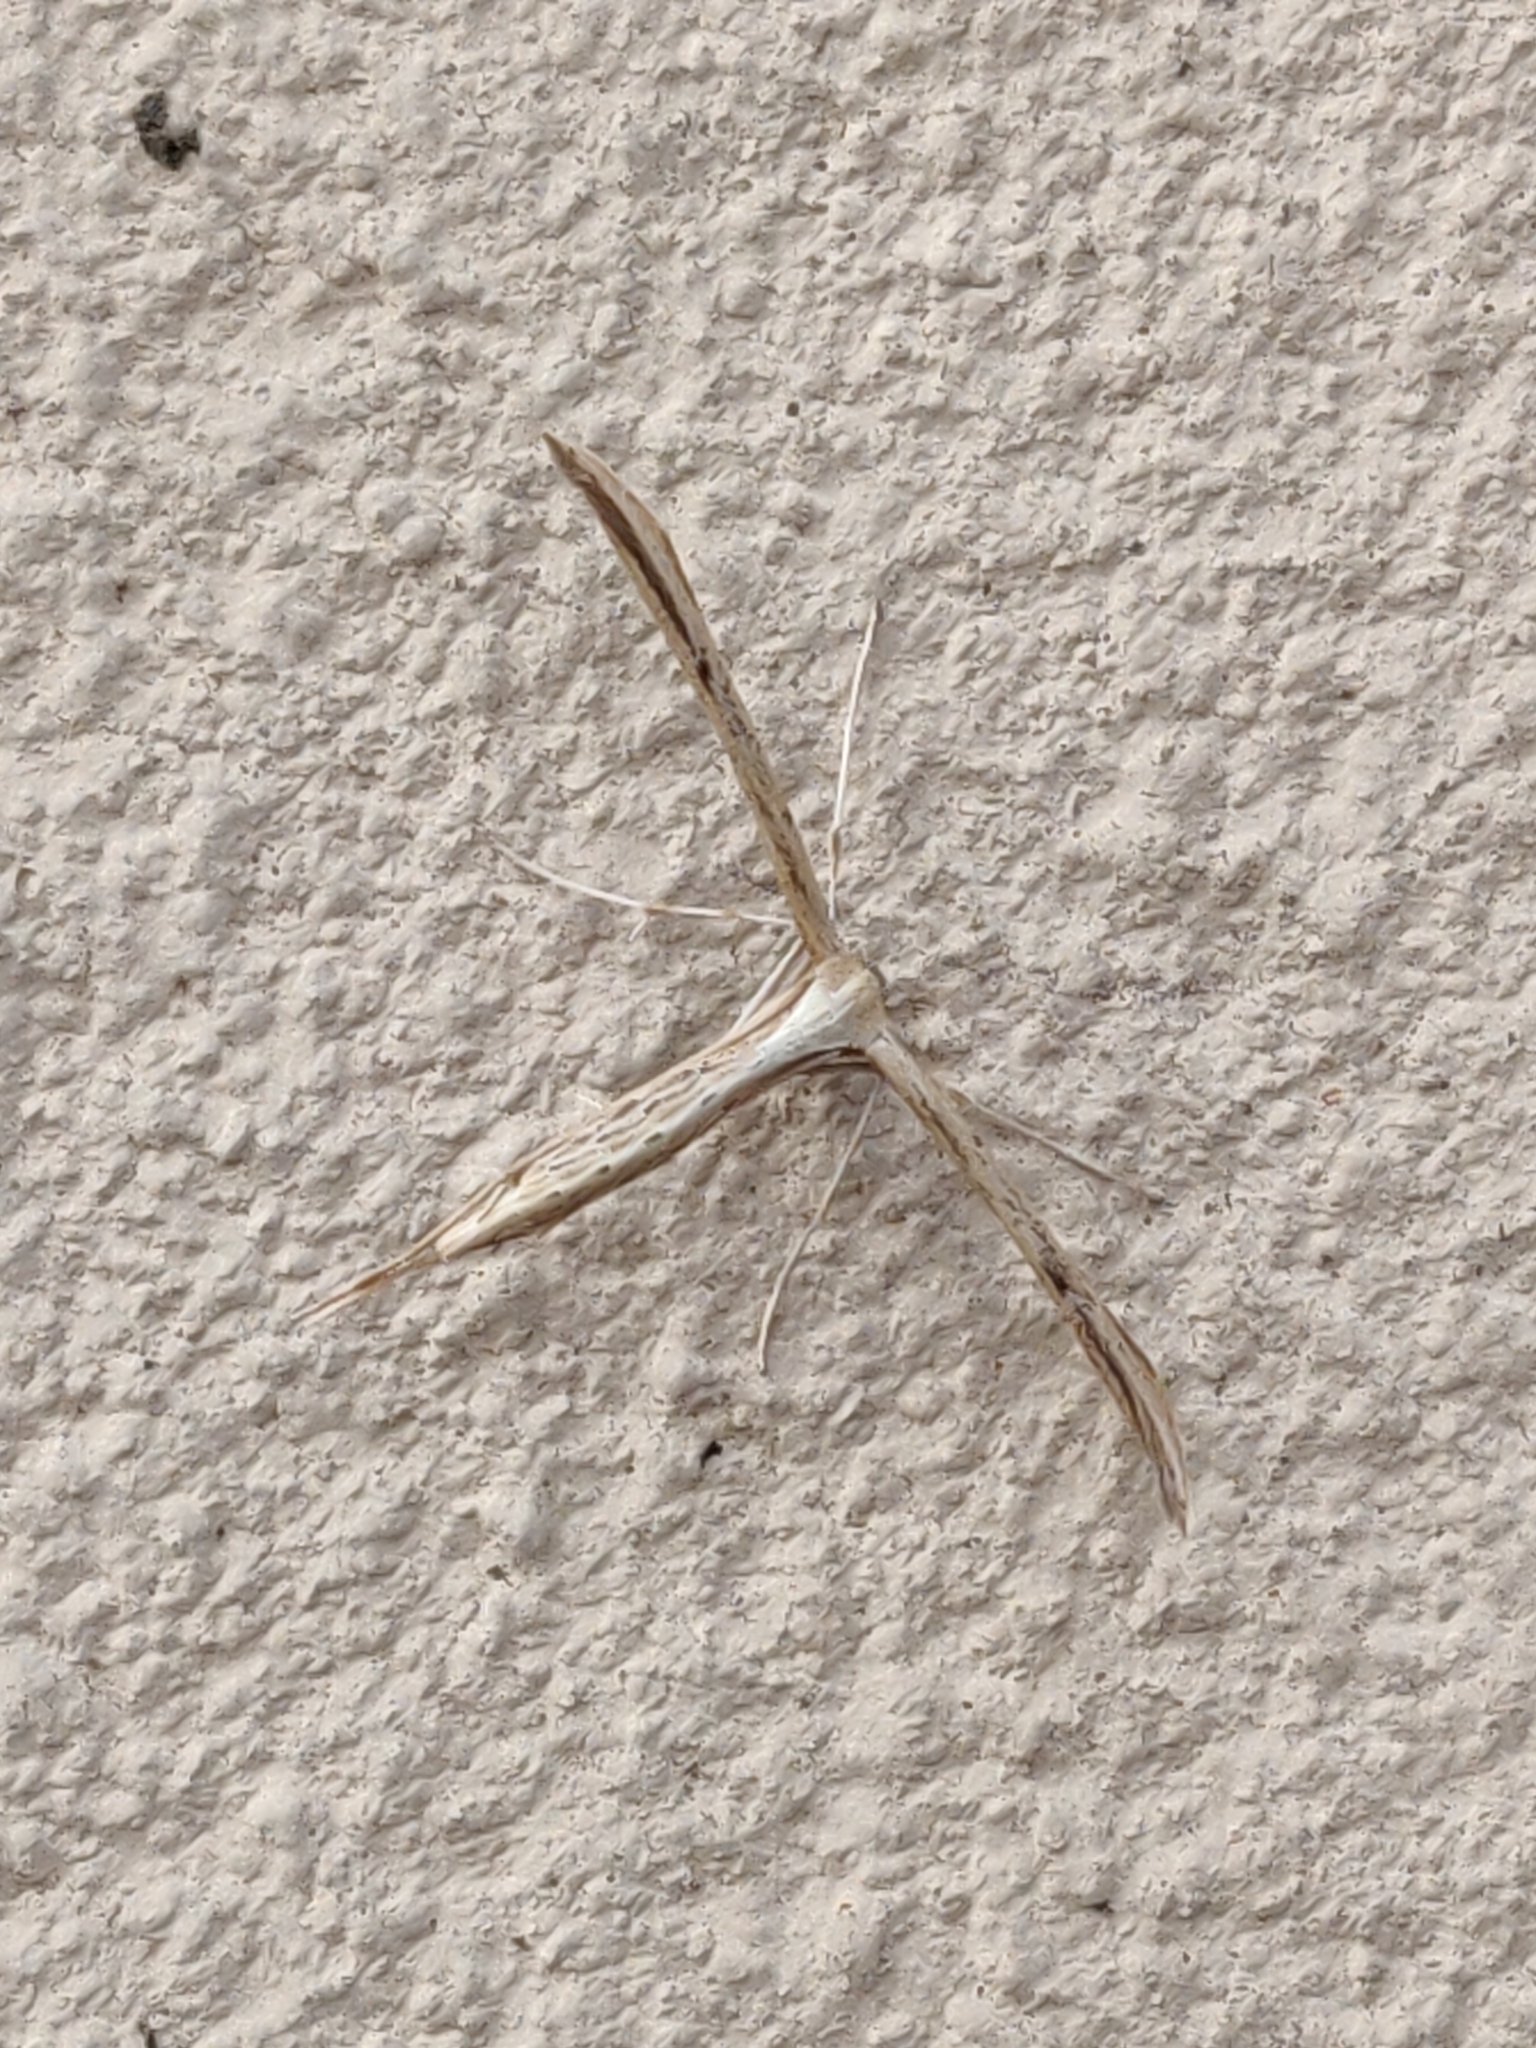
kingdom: Animalia
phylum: Arthropoda
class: Insecta
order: Lepidoptera
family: Pterophoridae
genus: Emmelina
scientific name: Emmelina monodactyla
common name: Common plume
